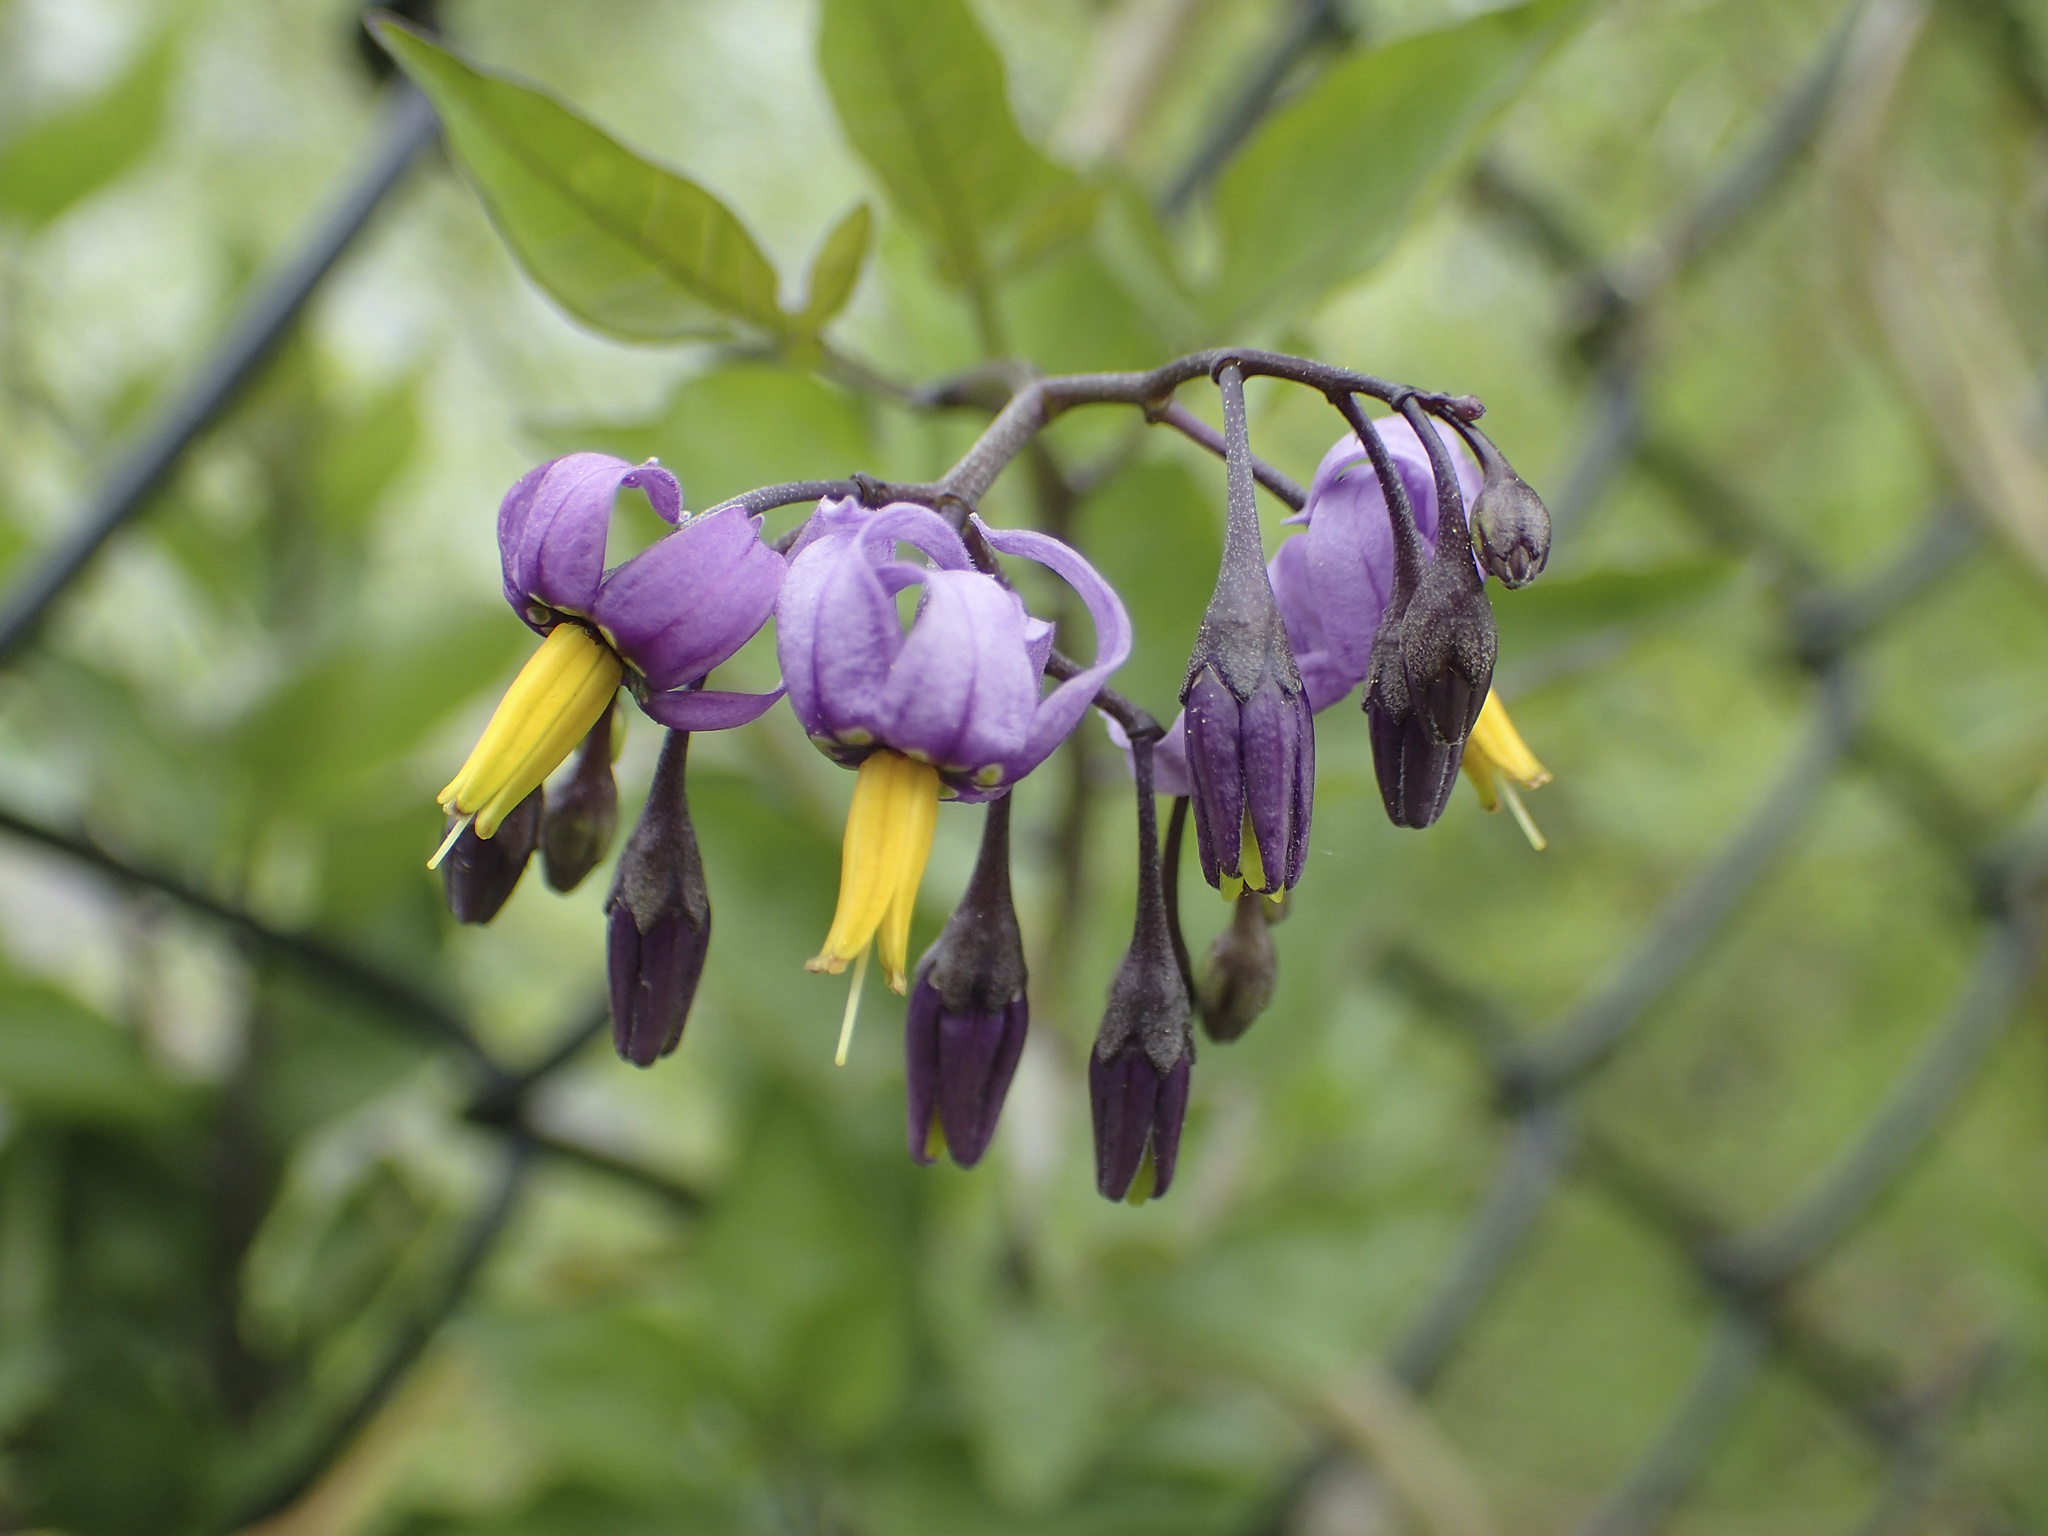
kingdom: Plantae
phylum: Tracheophyta
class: Magnoliopsida
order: Solanales
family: Solanaceae
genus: Solanum
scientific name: Solanum dulcamara
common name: Climbing nightshade
